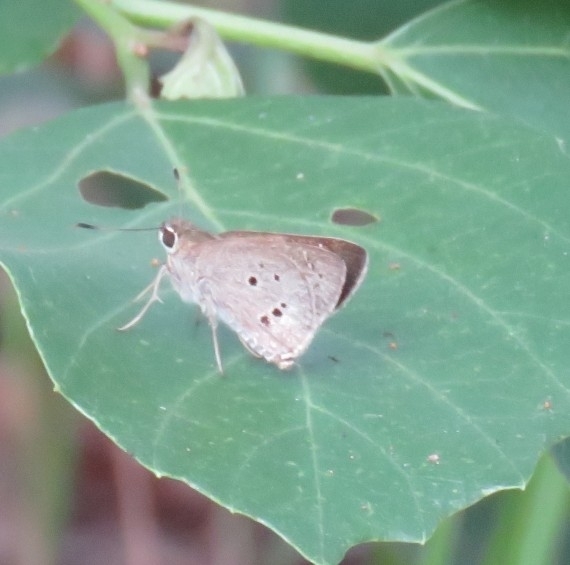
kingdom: Animalia
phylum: Arthropoda
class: Insecta
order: Lepidoptera
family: Hesperiidae
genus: Suastus
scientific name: Suastus gremius
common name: Indian palm bob
